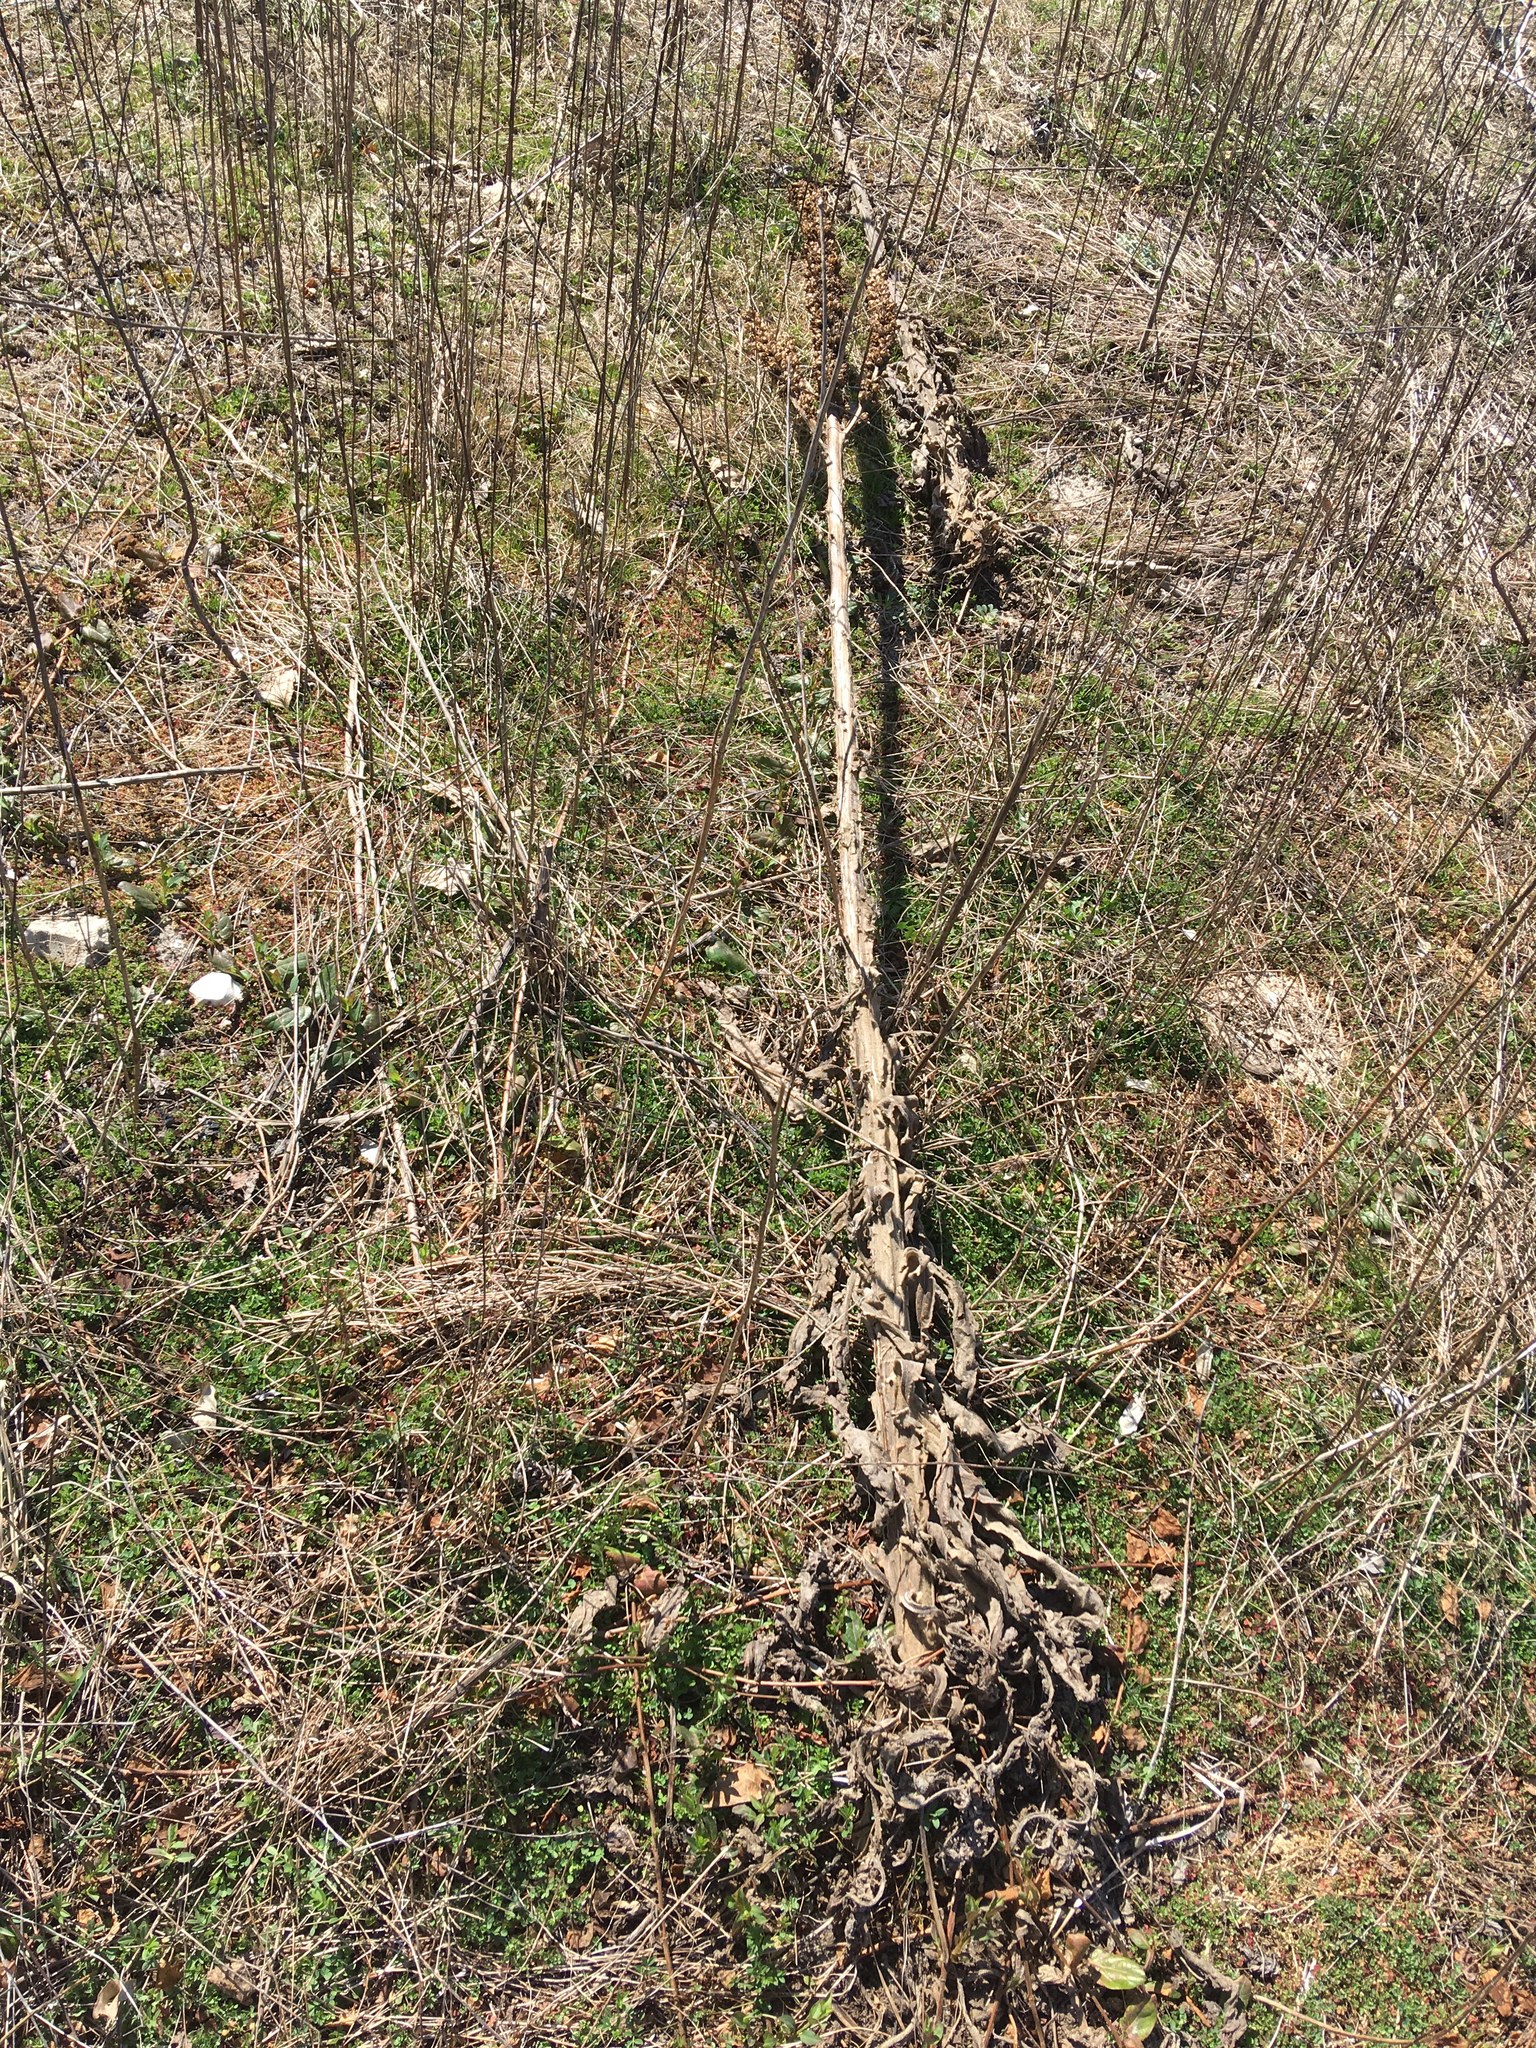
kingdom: Plantae
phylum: Tracheophyta
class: Magnoliopsida
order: Lamiales
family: Scrophulariaceae
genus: Verbascum
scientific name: Verbascum thapsus
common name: Common mullein
